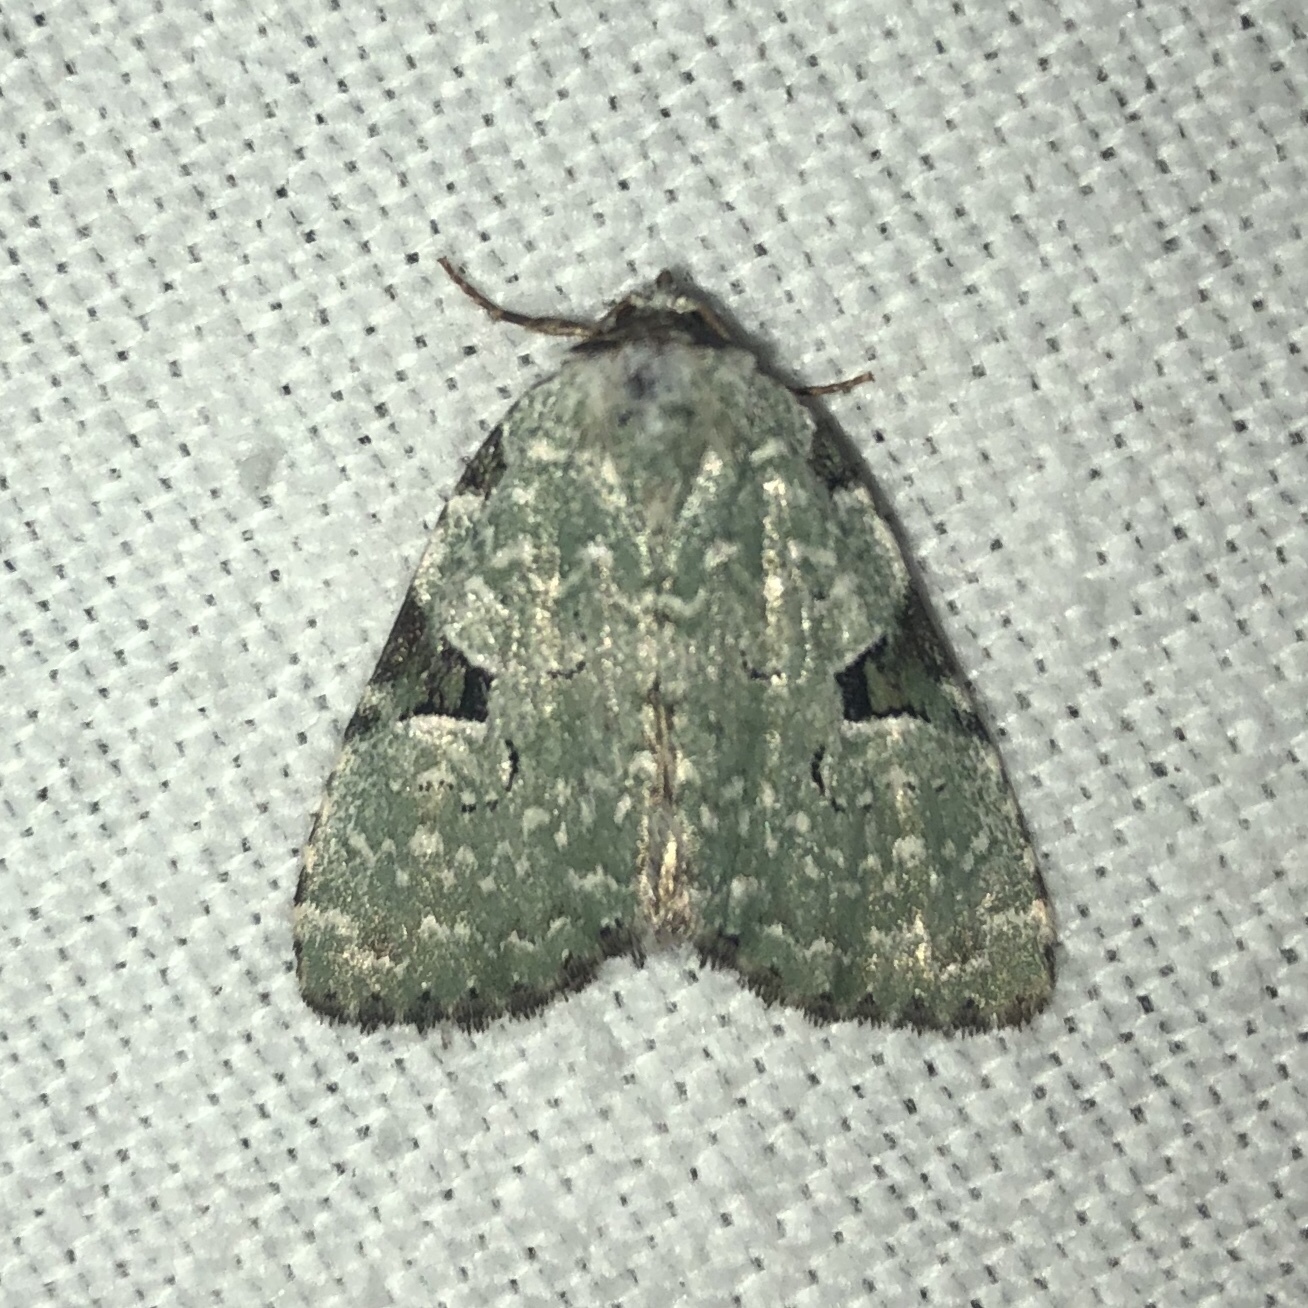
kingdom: Animalia
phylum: Arthropoda
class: Insecta
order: Lepidoptera
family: Noctuidae
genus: Leuconycta
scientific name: Leuconycta diphteroides
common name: Green leuconycta moth
